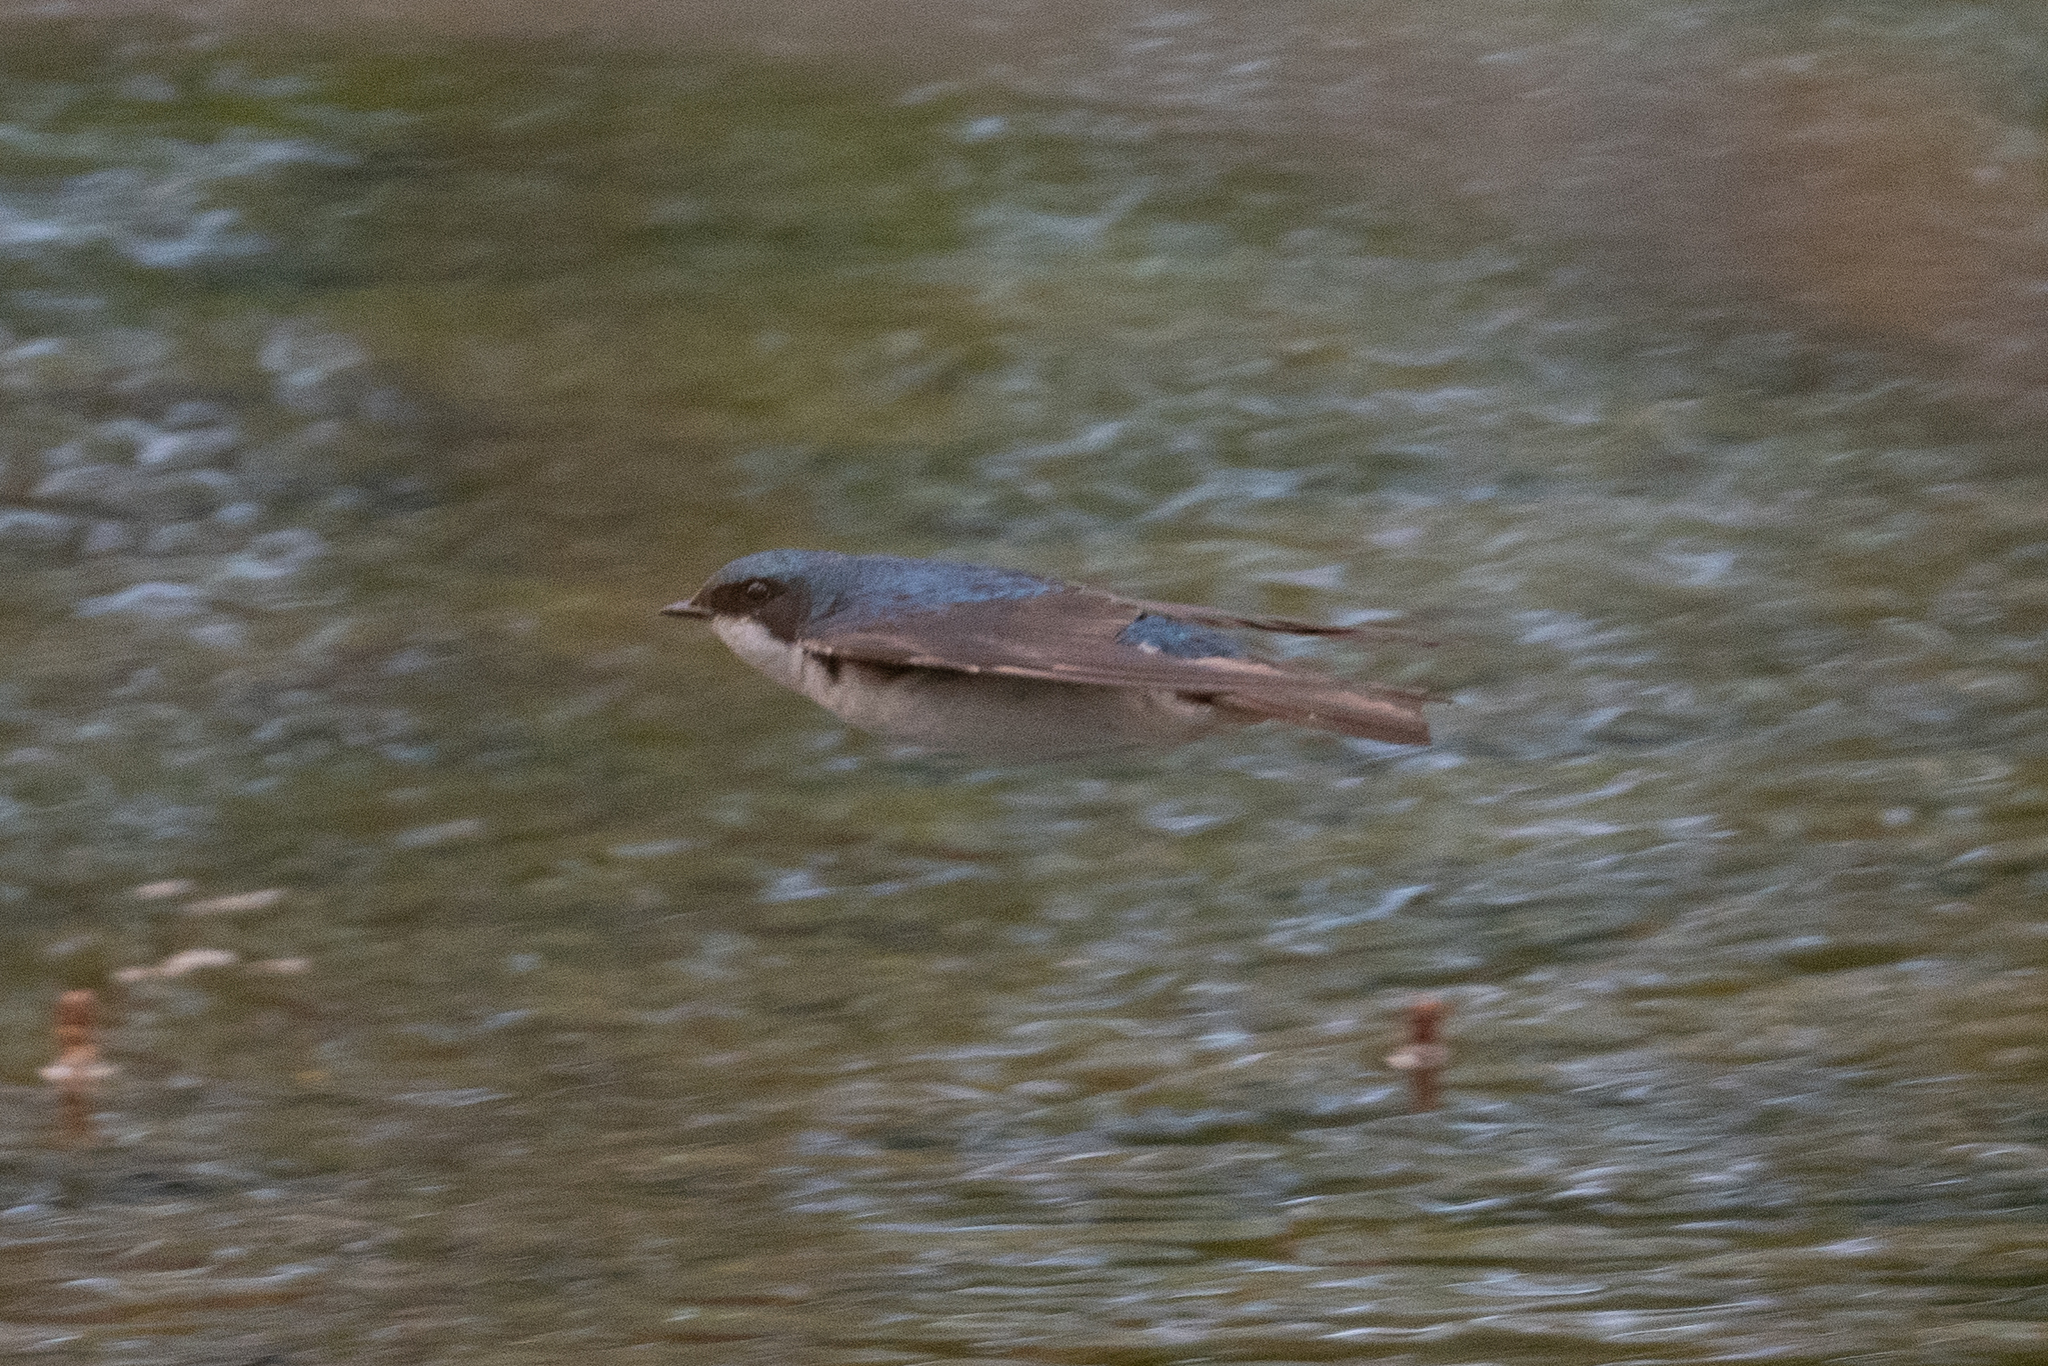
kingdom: Animalia
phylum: Chordata
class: Aves
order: Passeriformes
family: Hirundinidae
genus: Tachycineta
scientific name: Tachycineta bicolor
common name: Tree swallow
